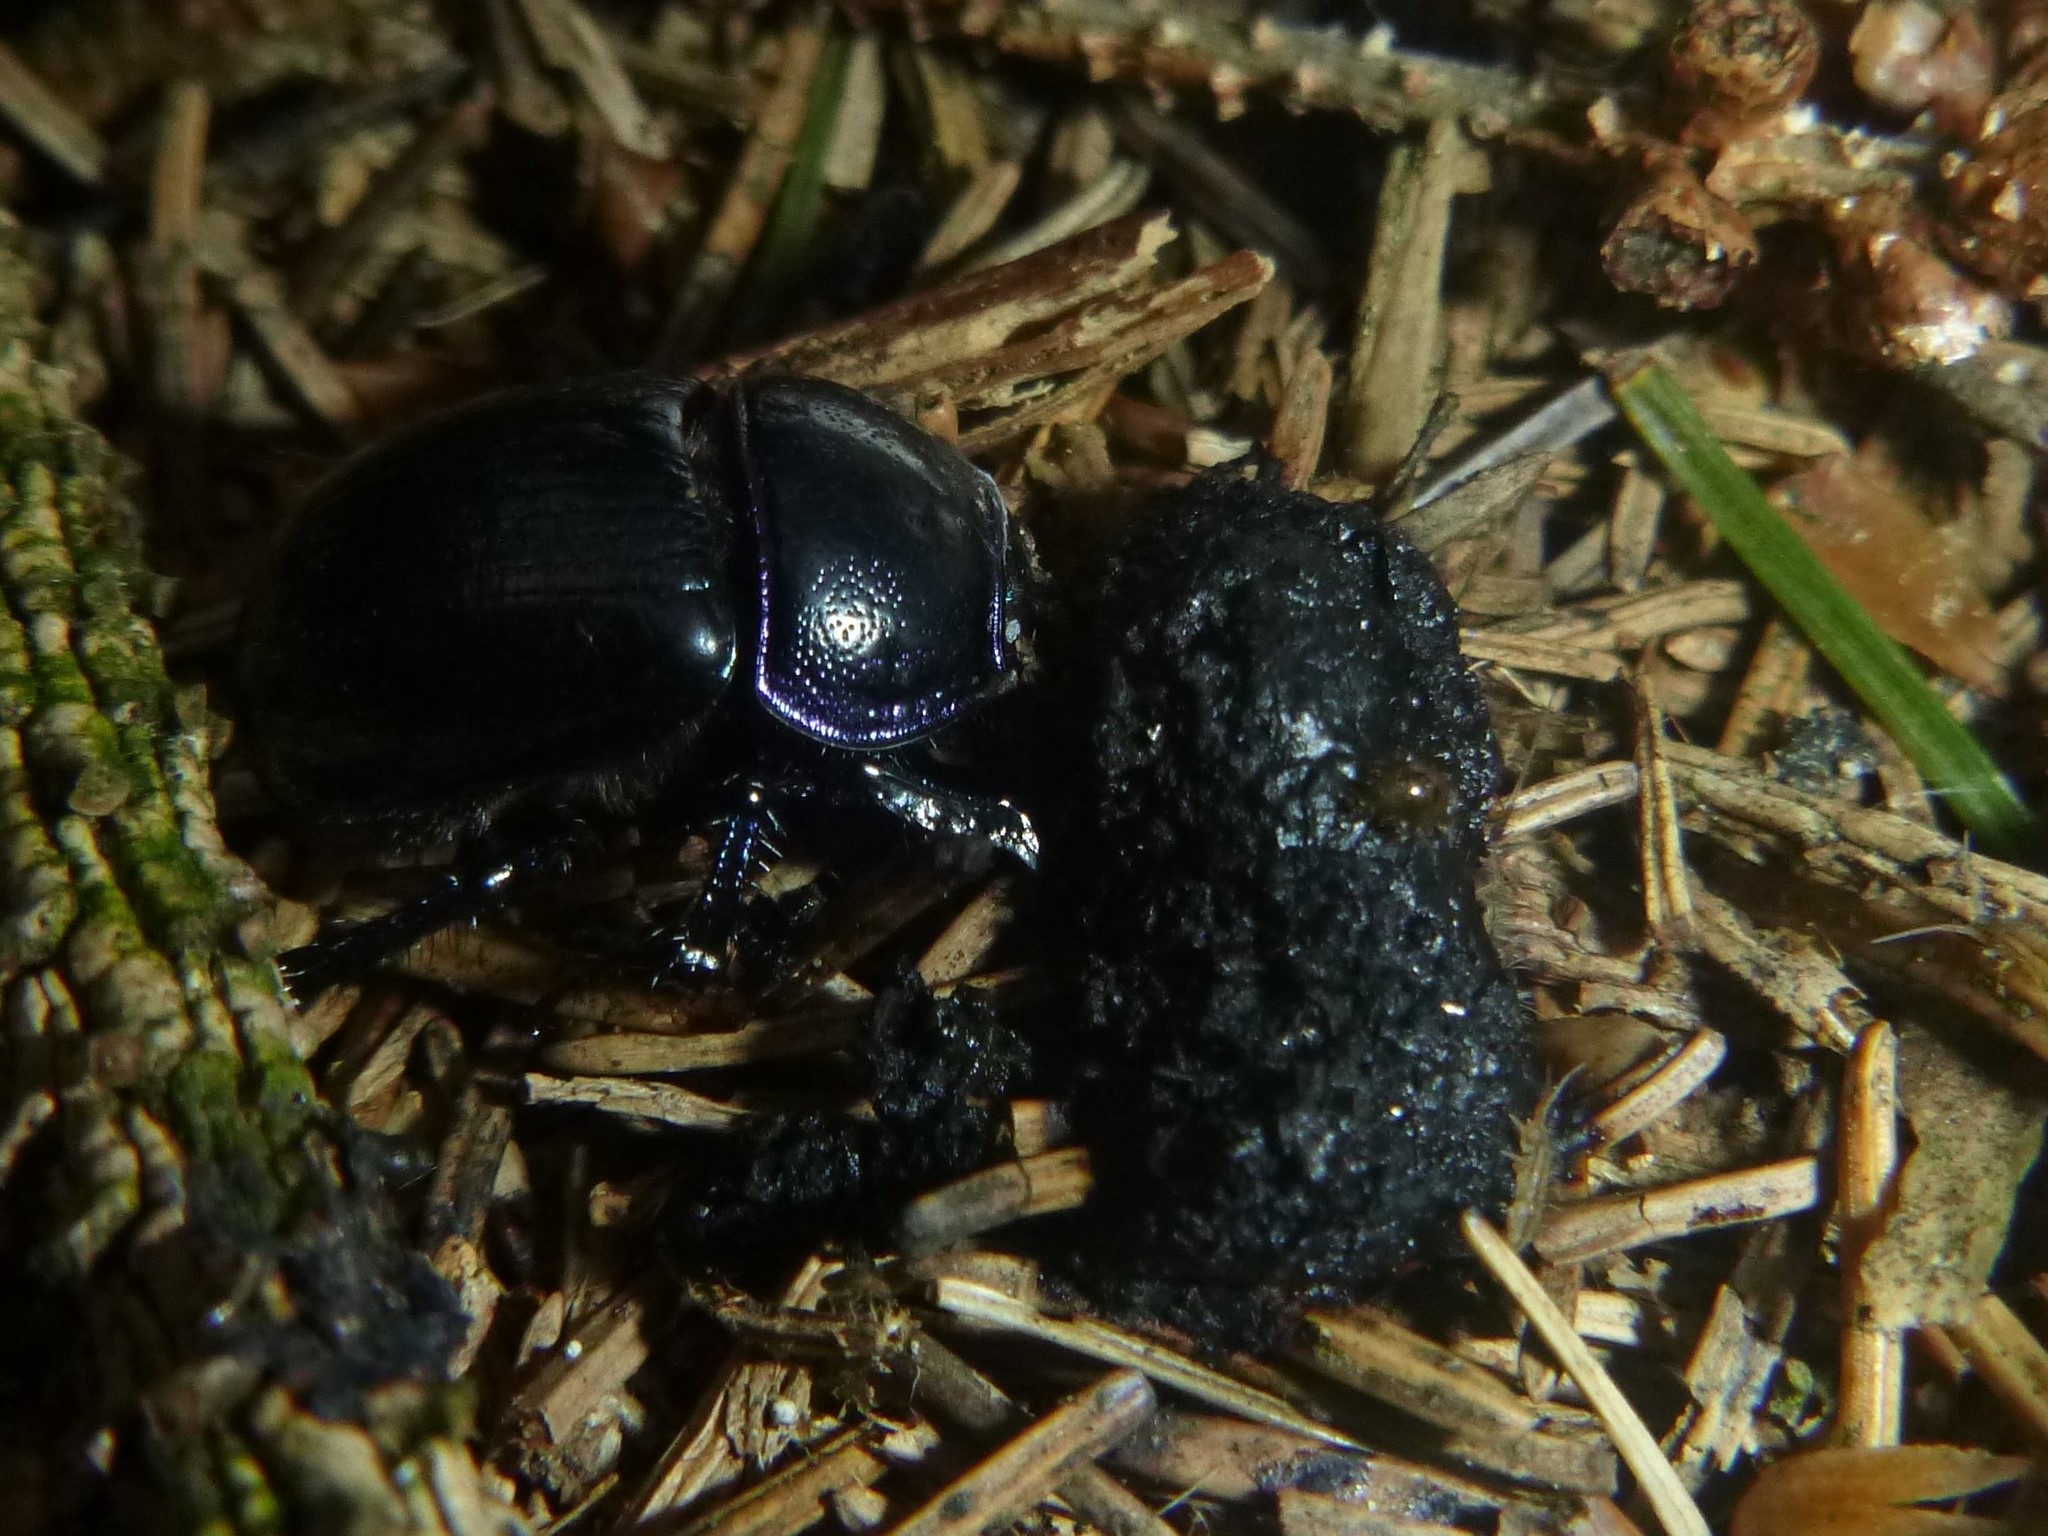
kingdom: Animalia
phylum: Arthropoda
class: Insecta
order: Coleoptera
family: Geotrupidae
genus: Anoplotrupes
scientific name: Anoplotrupes stercorosus
